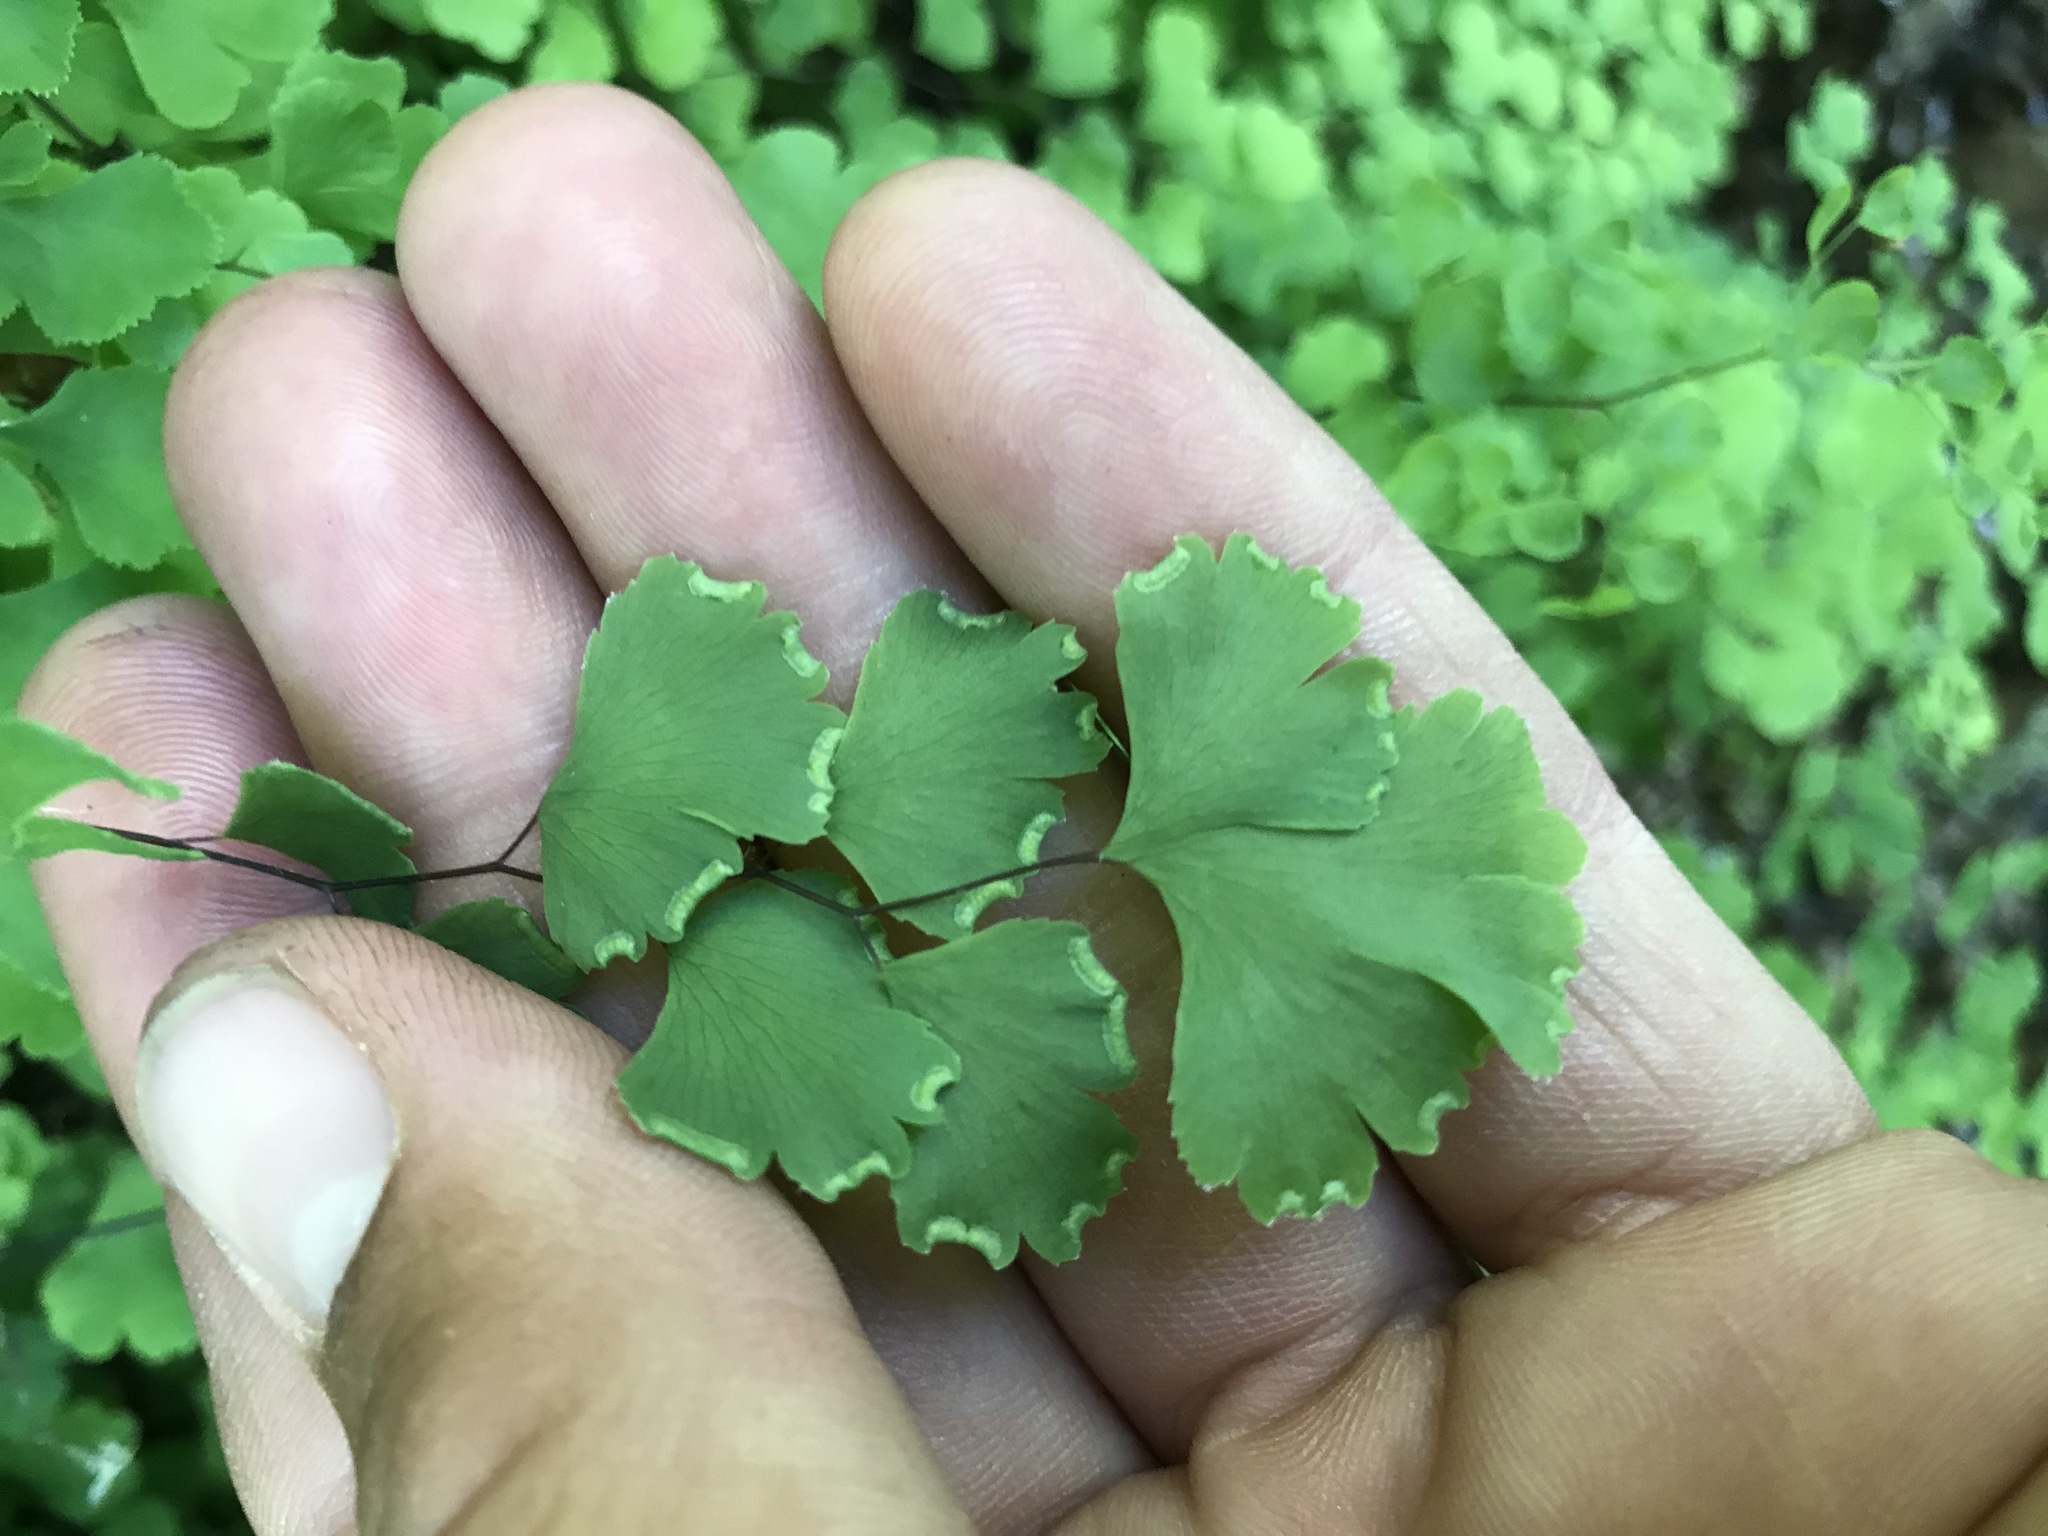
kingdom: Plantae
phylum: Tracheophyta
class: Polypodiopsida
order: Polypodiales
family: Pteridaceae
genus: Adiantum
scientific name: Adiantum capillus-veneris
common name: Maidenhair fern
